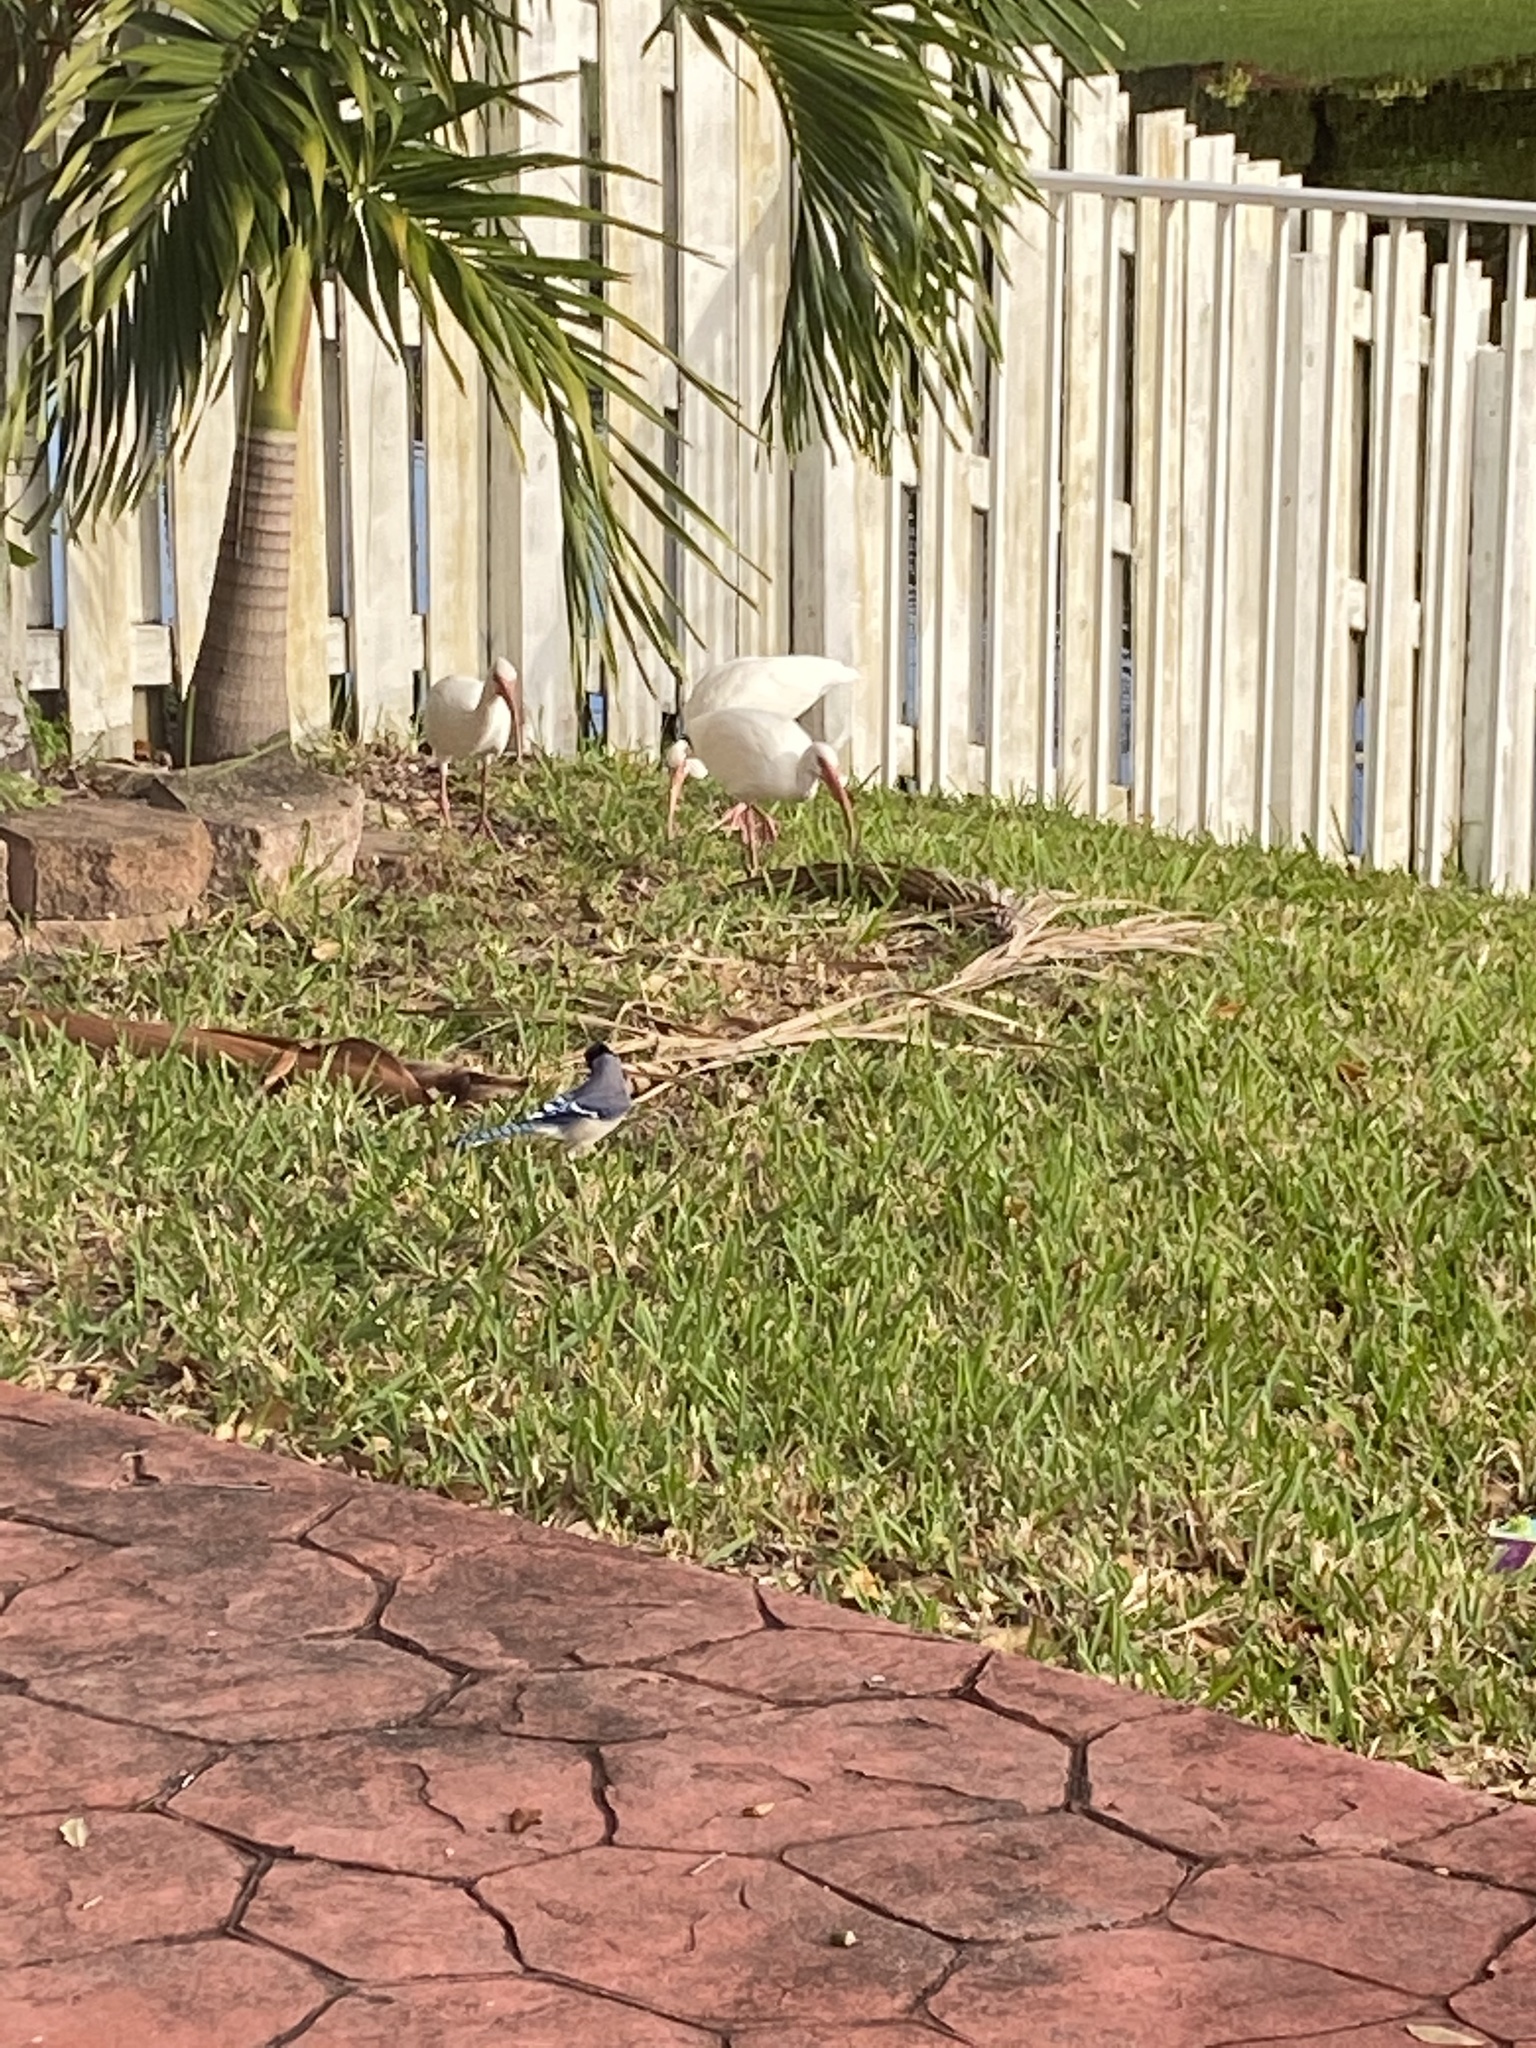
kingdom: Animalia
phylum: Chordata
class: Aves
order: Passeriformes
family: Corvidae
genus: Cyanocitta
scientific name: Cyanocitta cristata
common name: Blue jay
